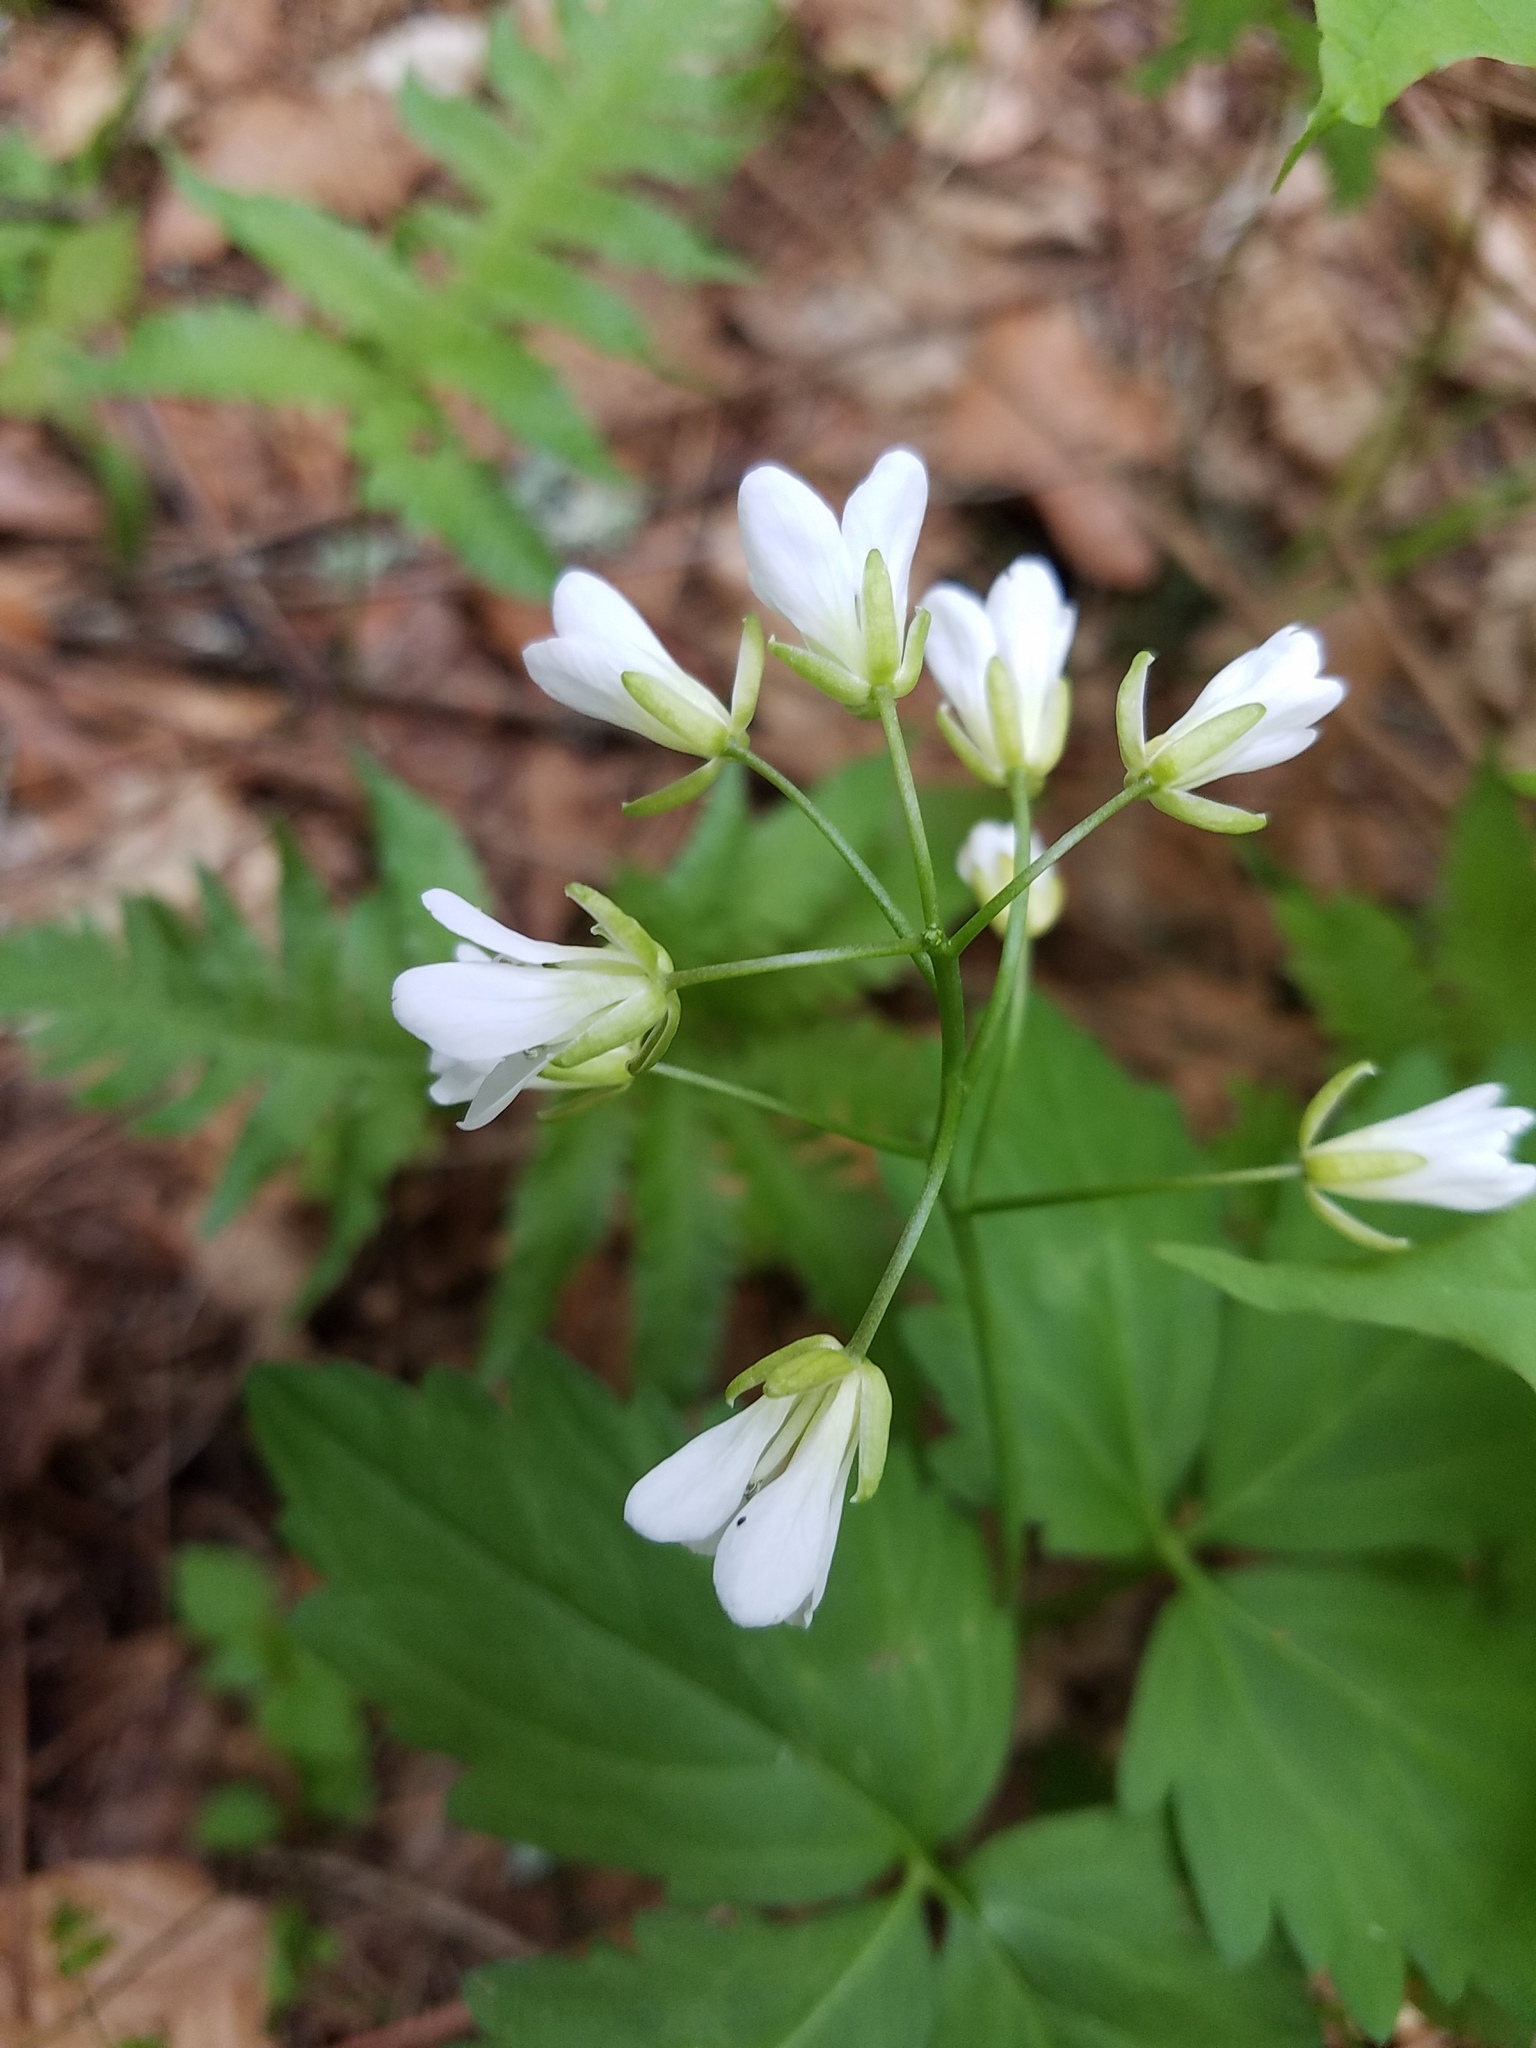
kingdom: Plantae
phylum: Tracheophyta
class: Magnoliopsida
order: Brassicales
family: Brassicaceae
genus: Cardamine
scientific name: Cardamine diphylla
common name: Broad-leaved toothwort
